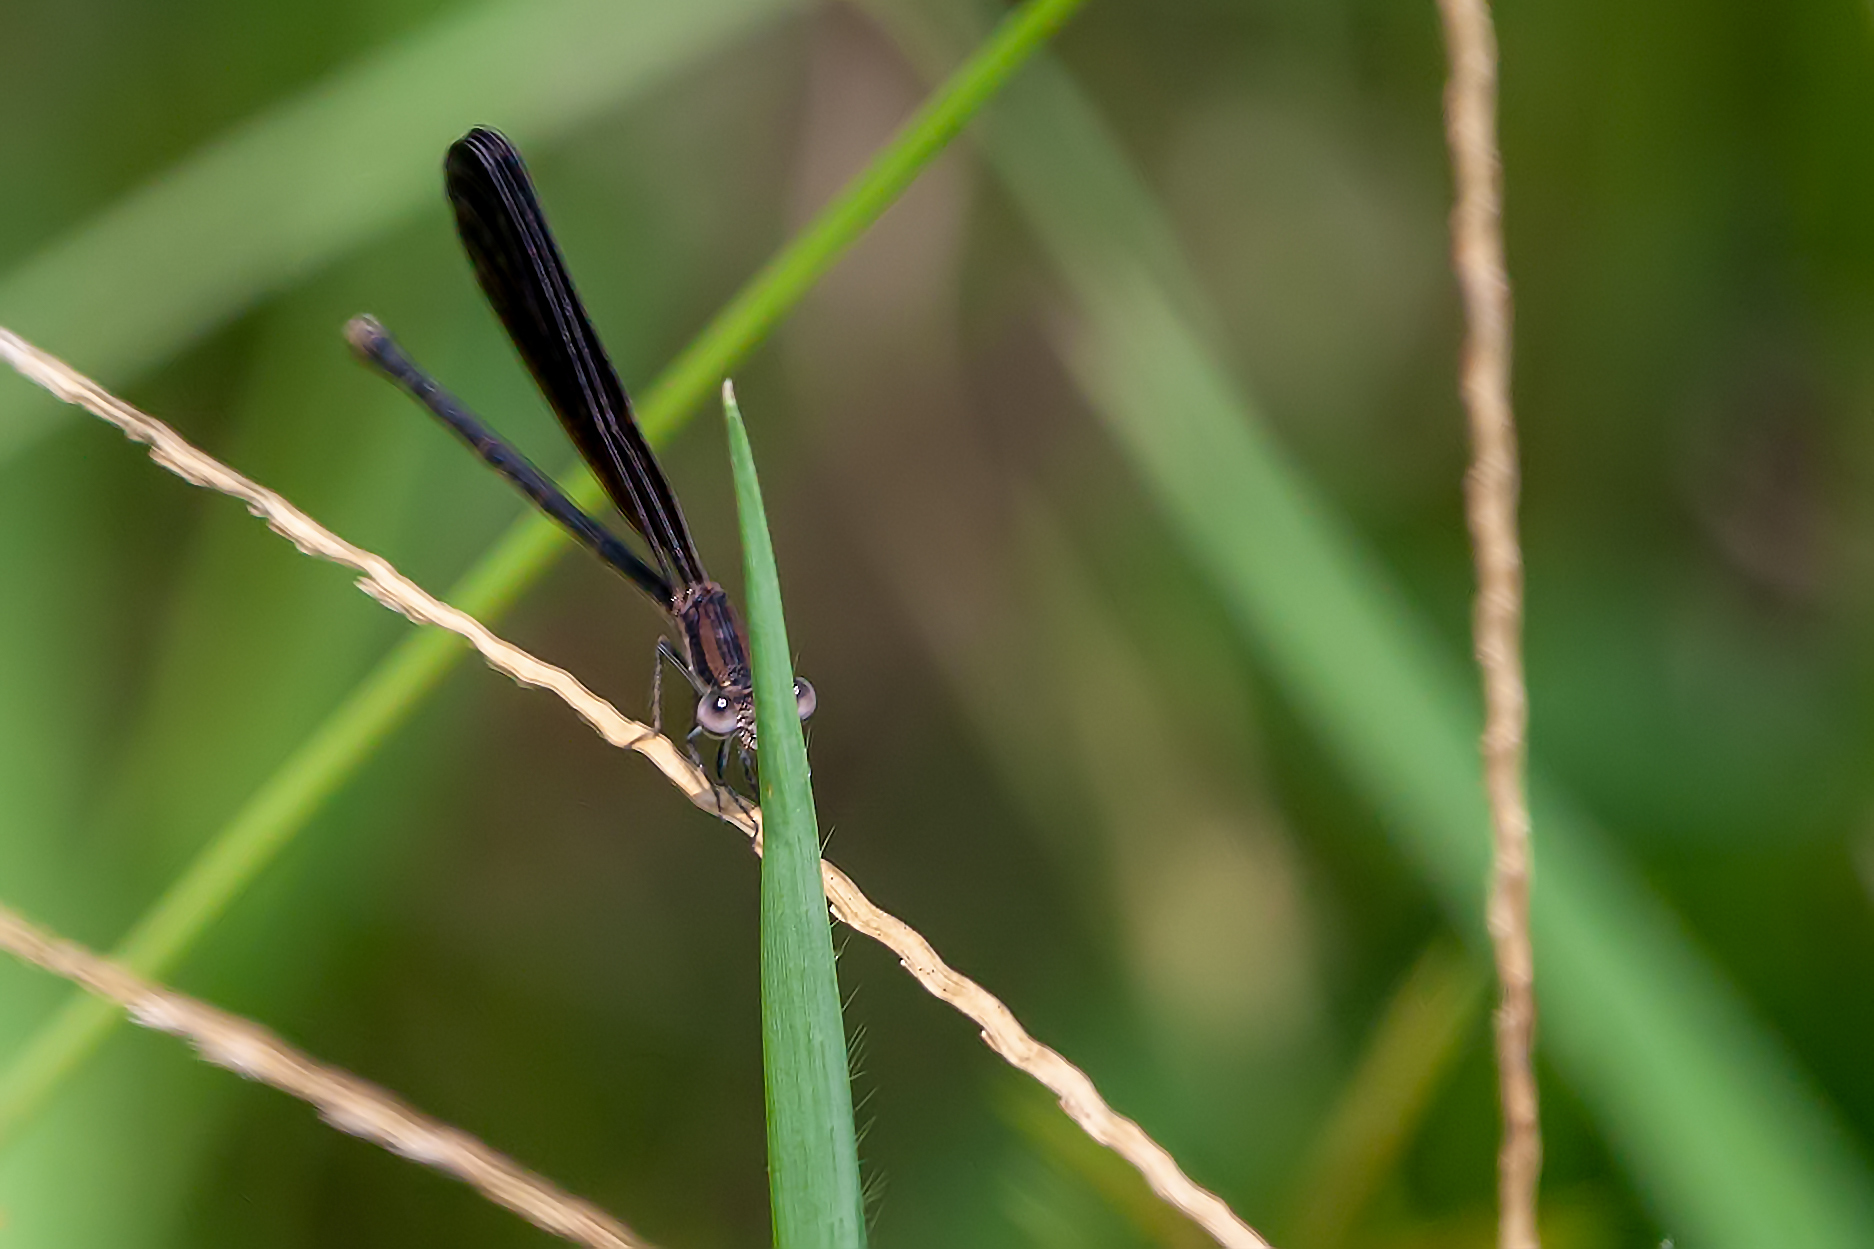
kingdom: Animalia
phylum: Arthropoda
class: Insecta
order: Odonata
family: Coenagrionidae
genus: Argia
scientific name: Argia fumipennis
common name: Variable dancer
